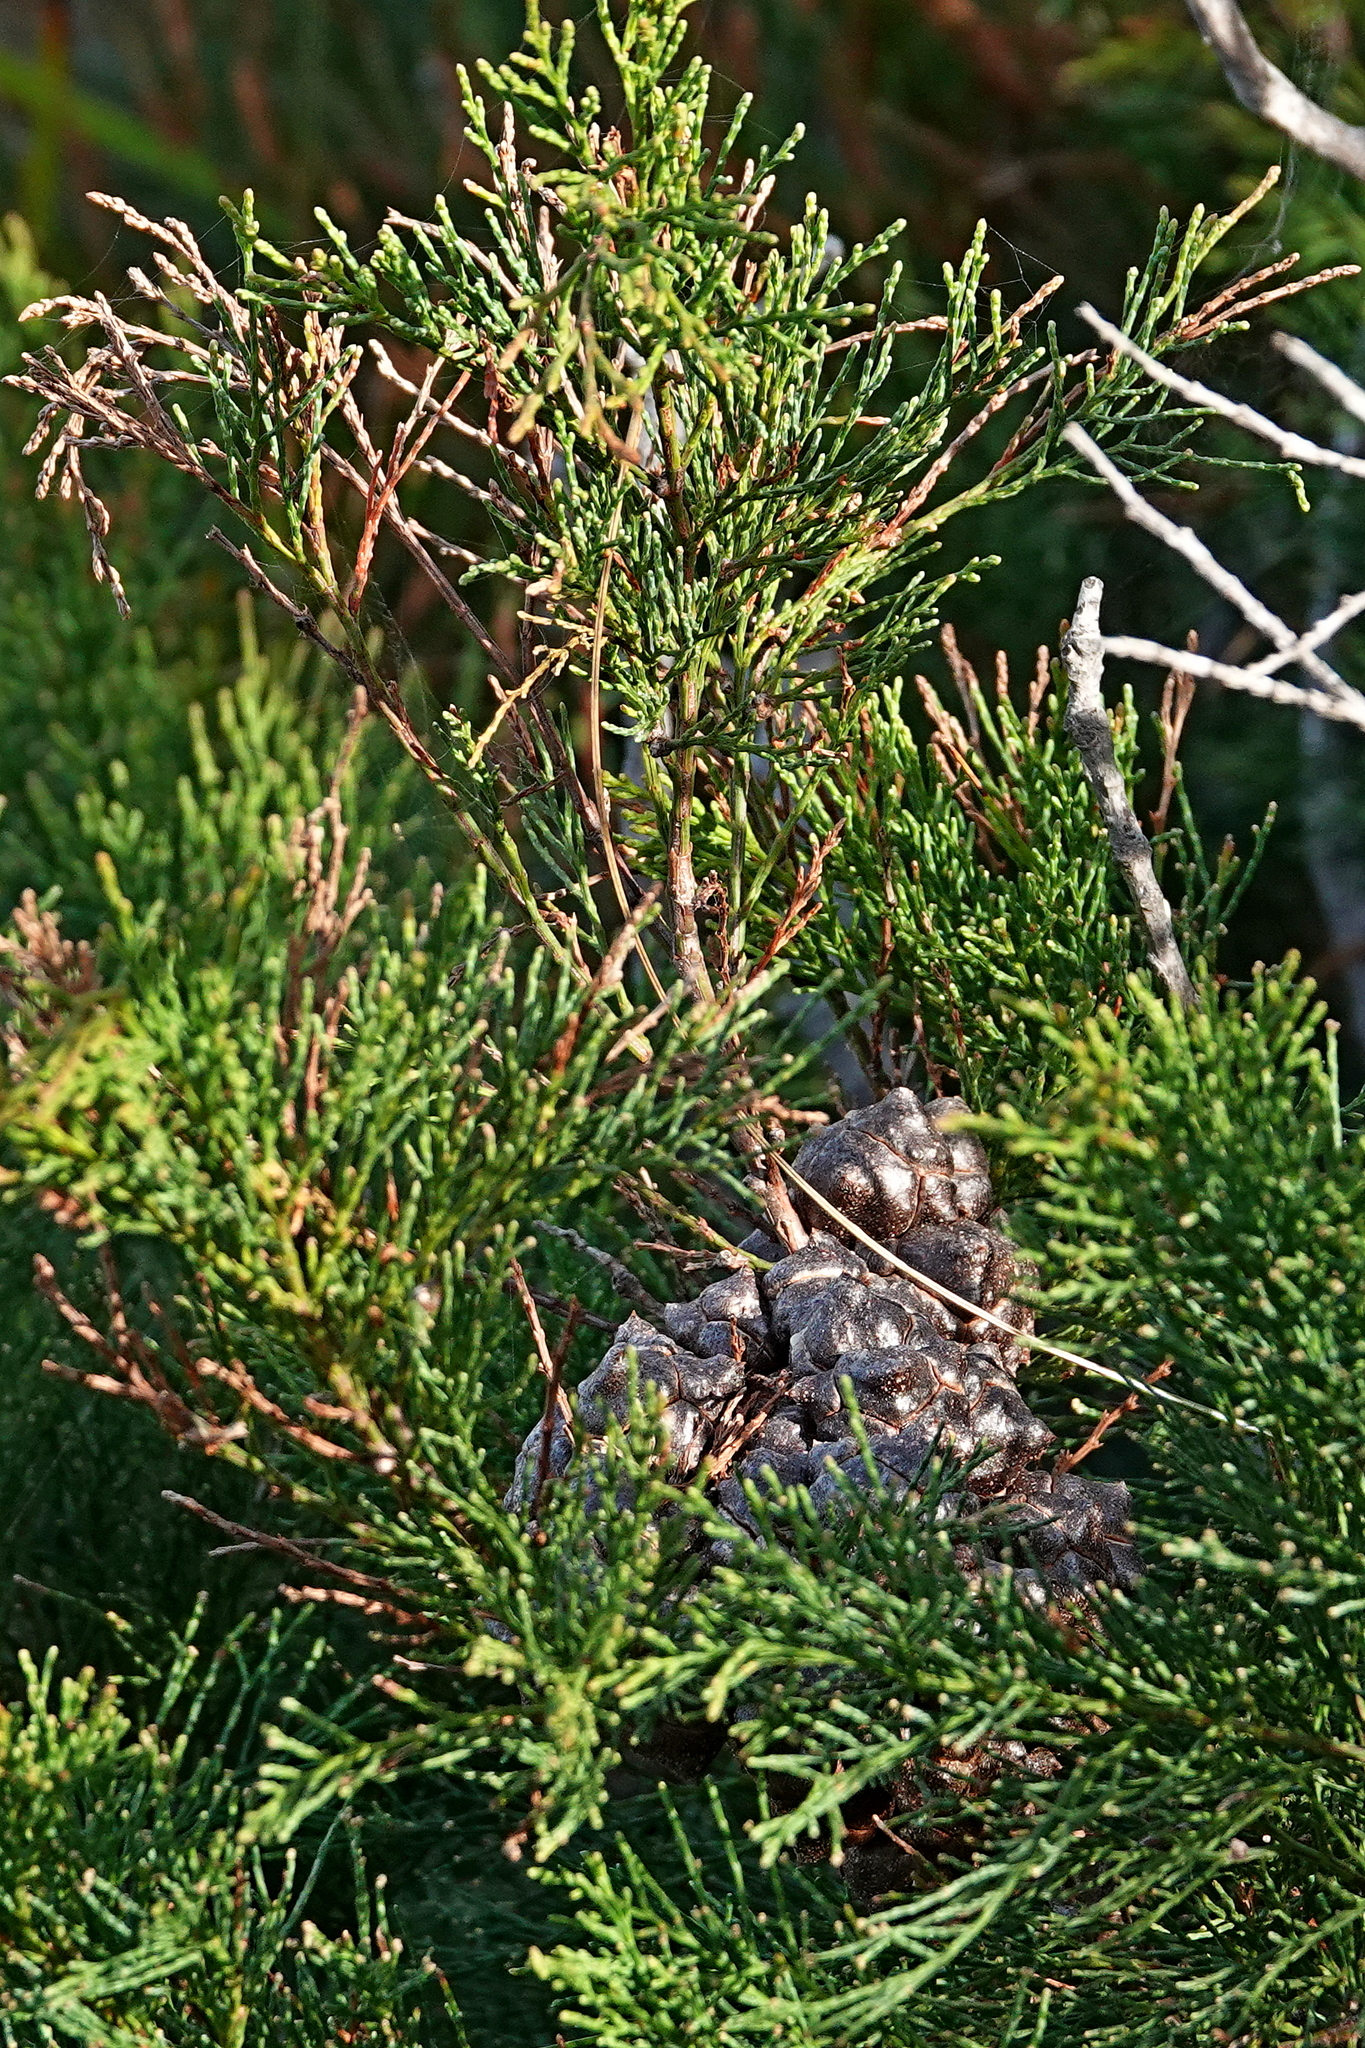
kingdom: Plantae
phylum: Tracheophyta
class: Pinopsida
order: Pinales
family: Cupressaceae
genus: Callitris
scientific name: Callitris rhomboidea
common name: Illawara mountain pine
